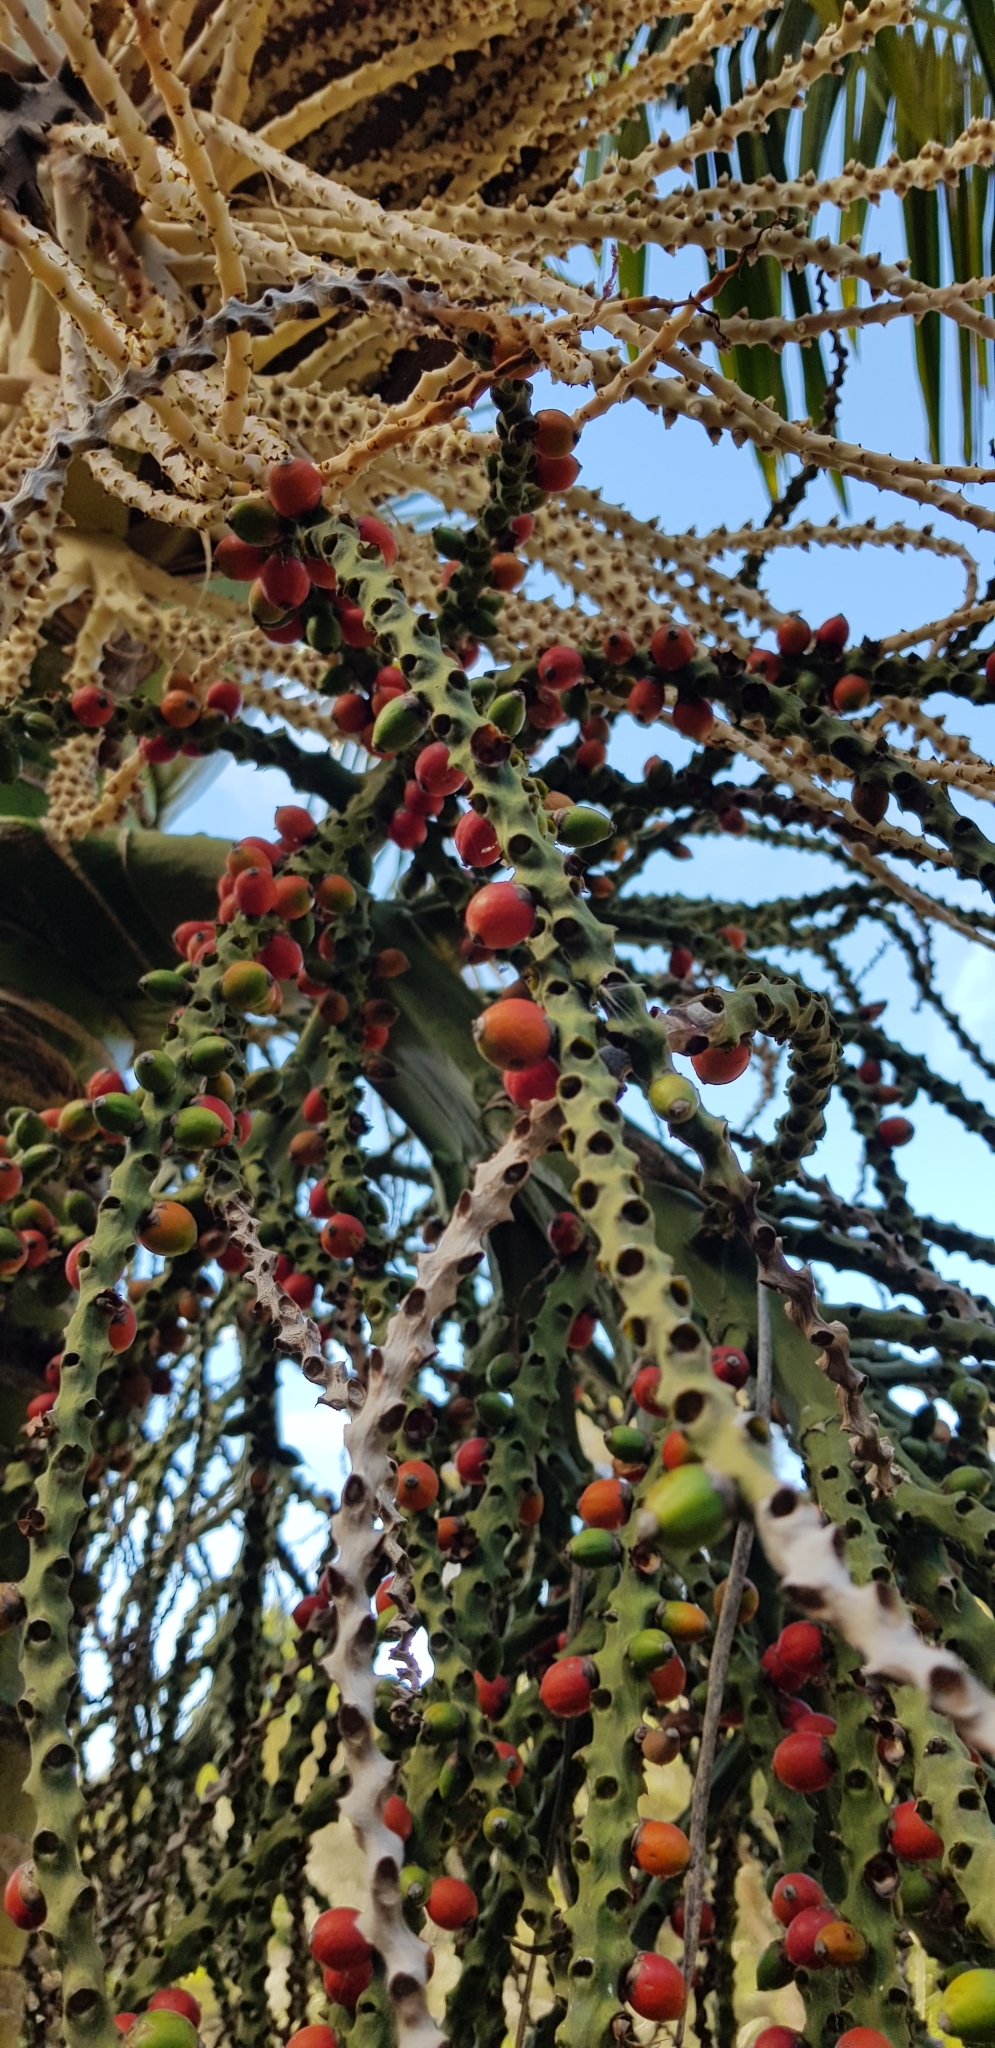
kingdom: Plantae
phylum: Tracheophyta
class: Liliopsida
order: Arecales
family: Arecaceae
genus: Rhopalostylis
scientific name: Rhopalostylis sapida
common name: Feather-duster palm
